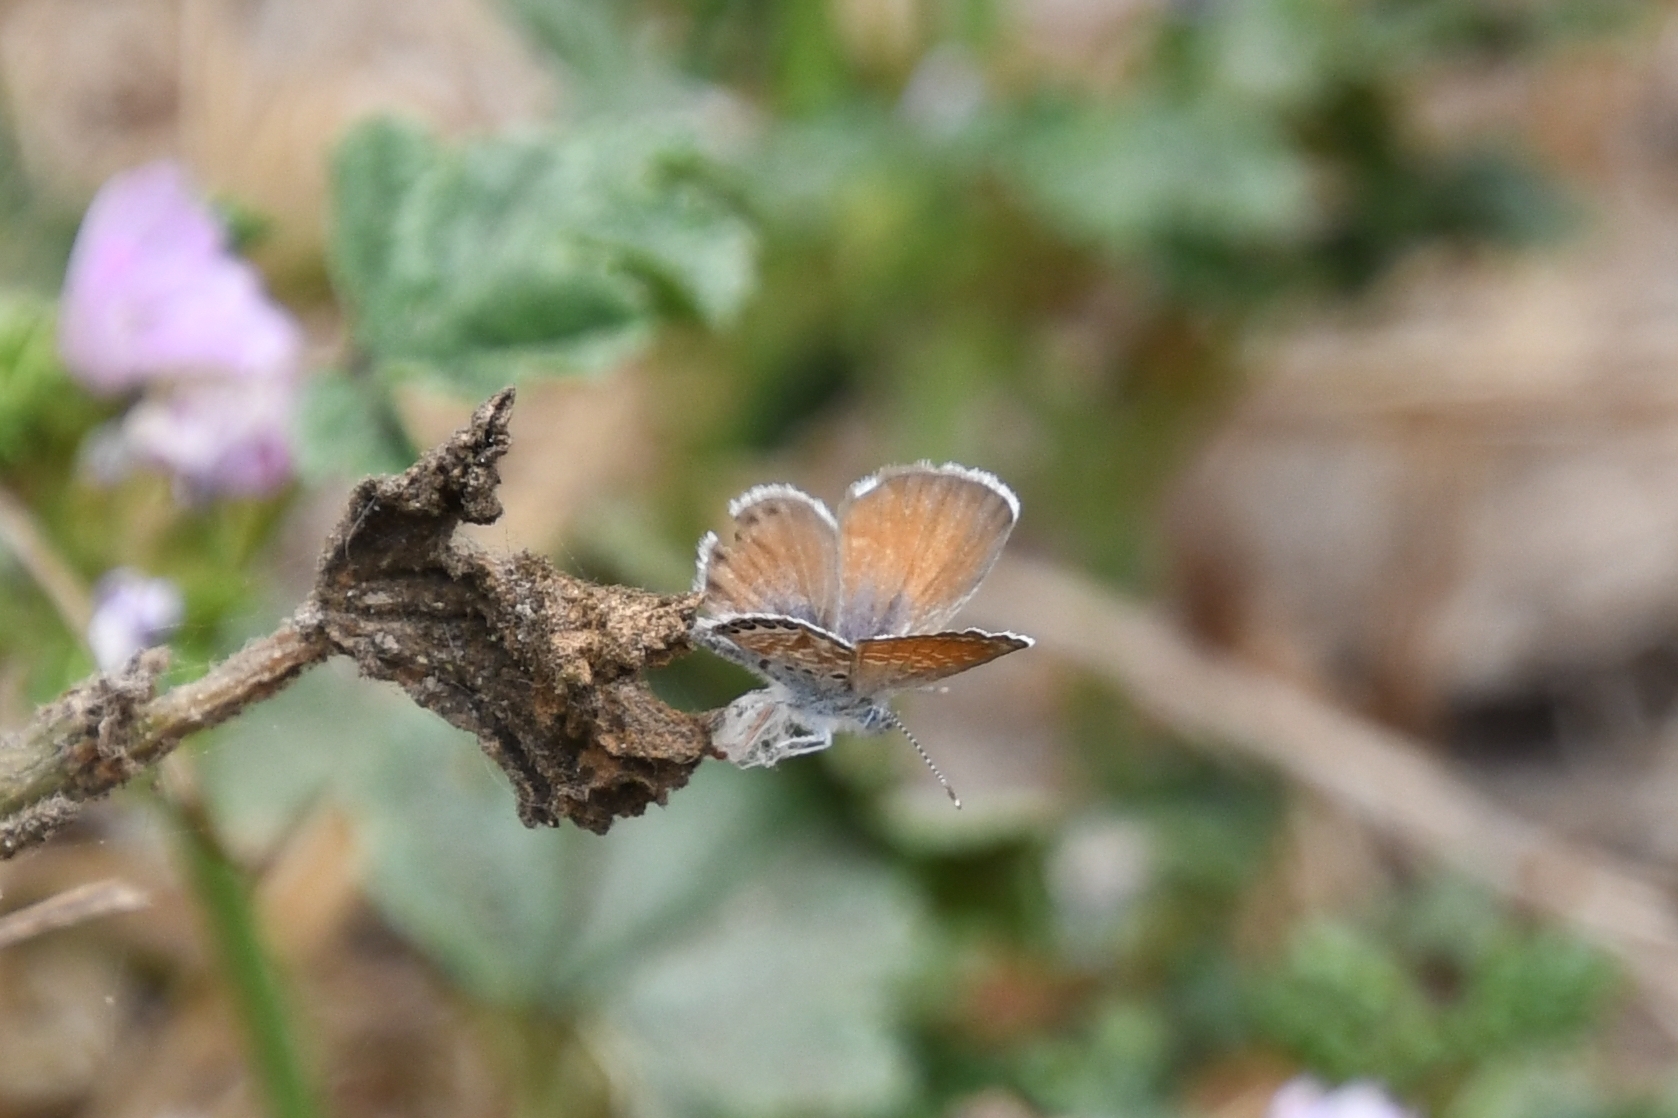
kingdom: Animalia
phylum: Arthropoda
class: Insecta
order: Lepidoptera
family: Lycaenidae
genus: Brephidium
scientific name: Brephidium exilis
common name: Pygmy blue
